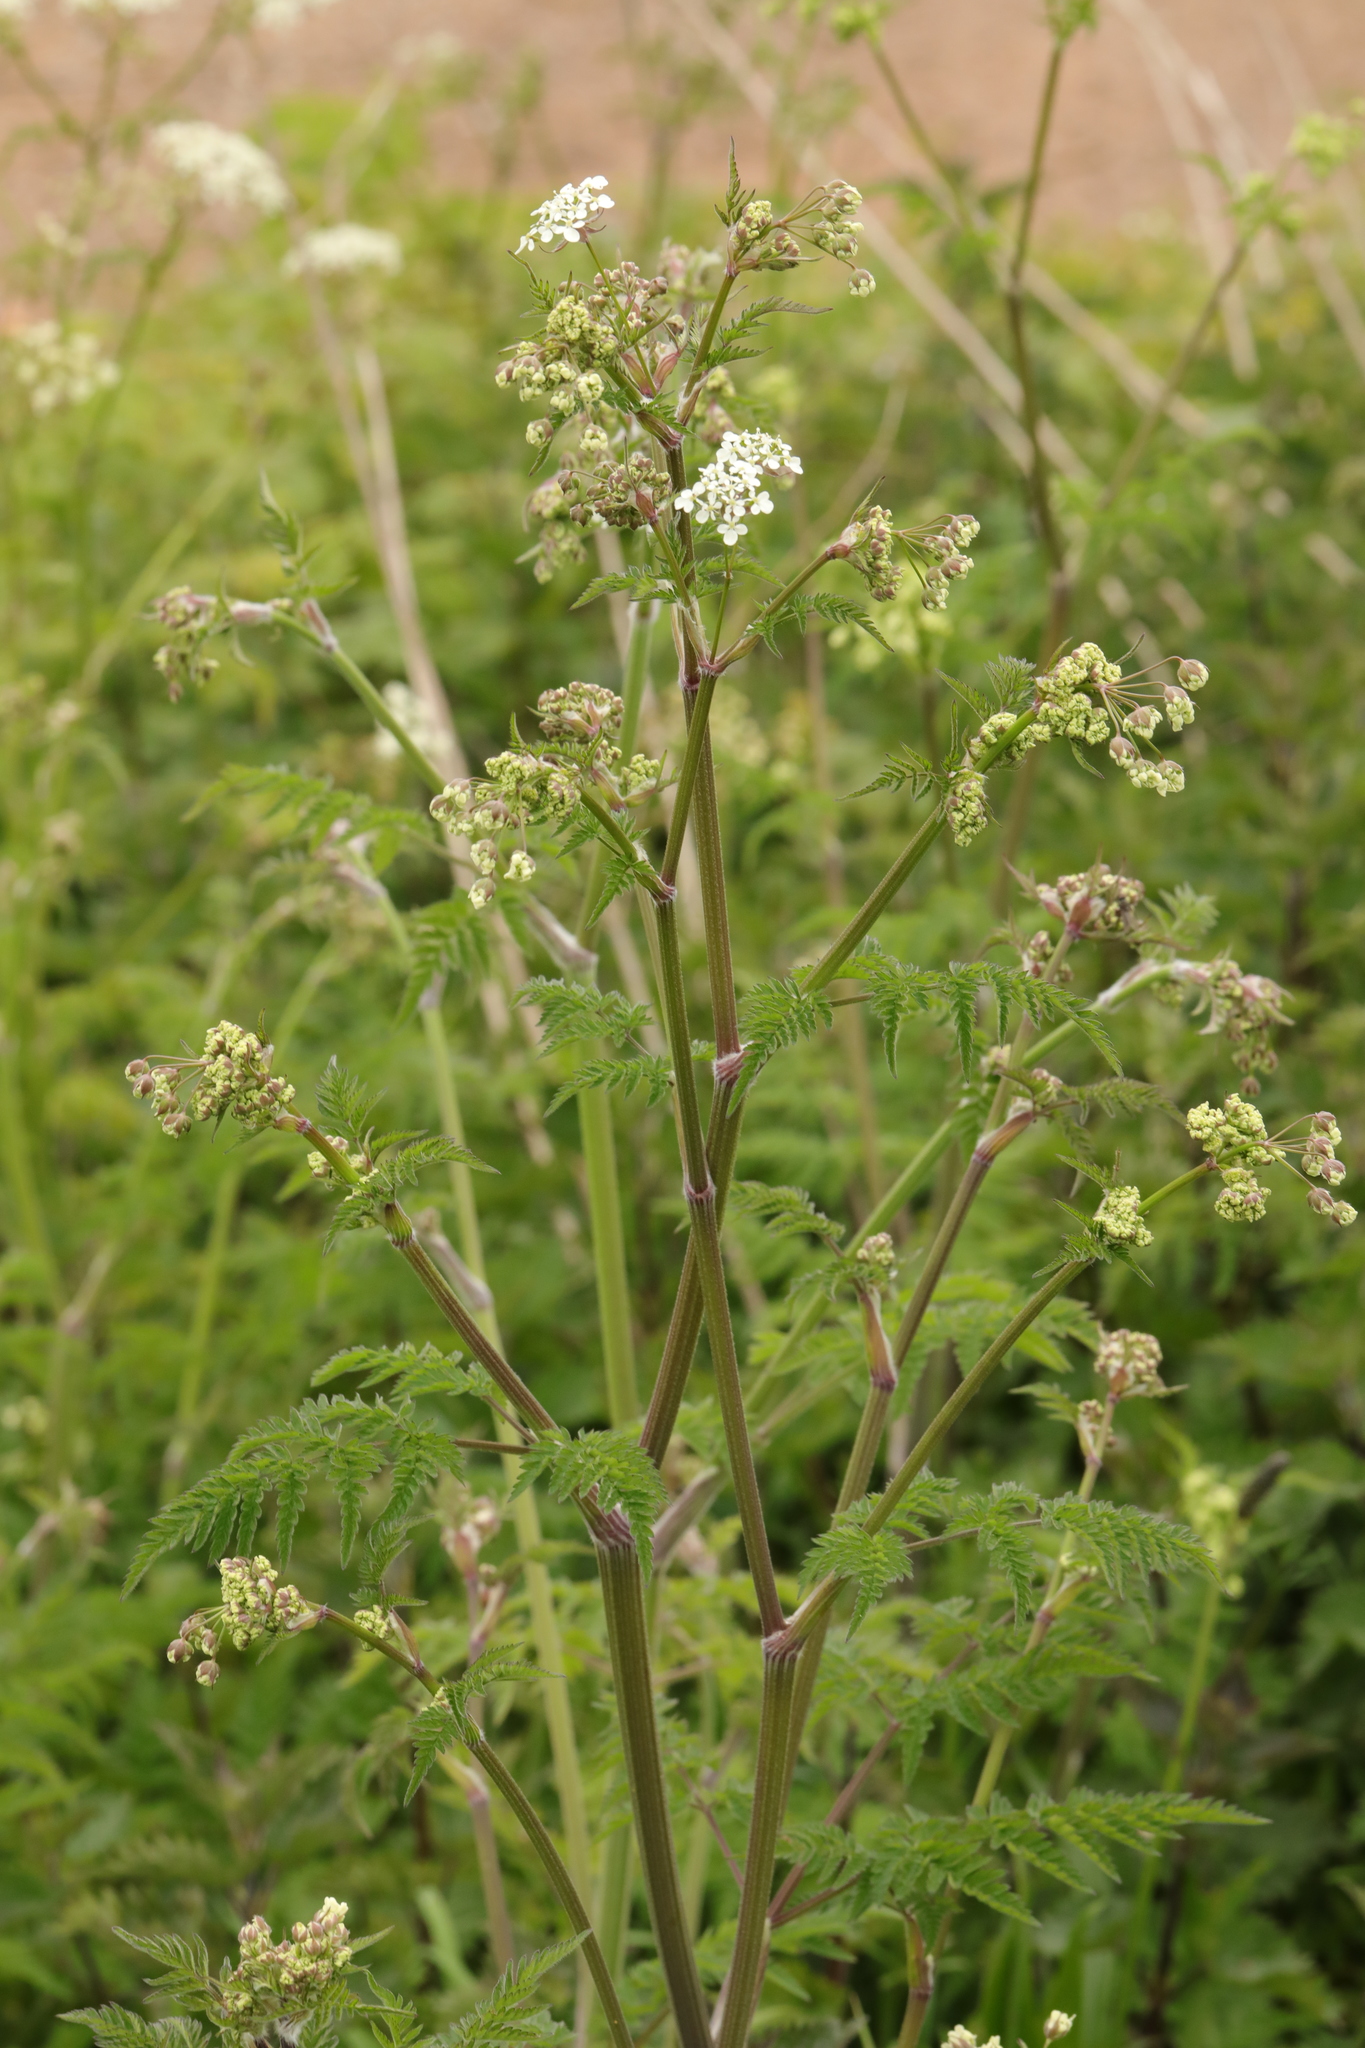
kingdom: Plantae
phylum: Tracheophyta
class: Magnoliopsida
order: Apiales
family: Apiaceae
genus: Anthriscus
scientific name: Anthriscus sylvestris
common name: Cow parsley
